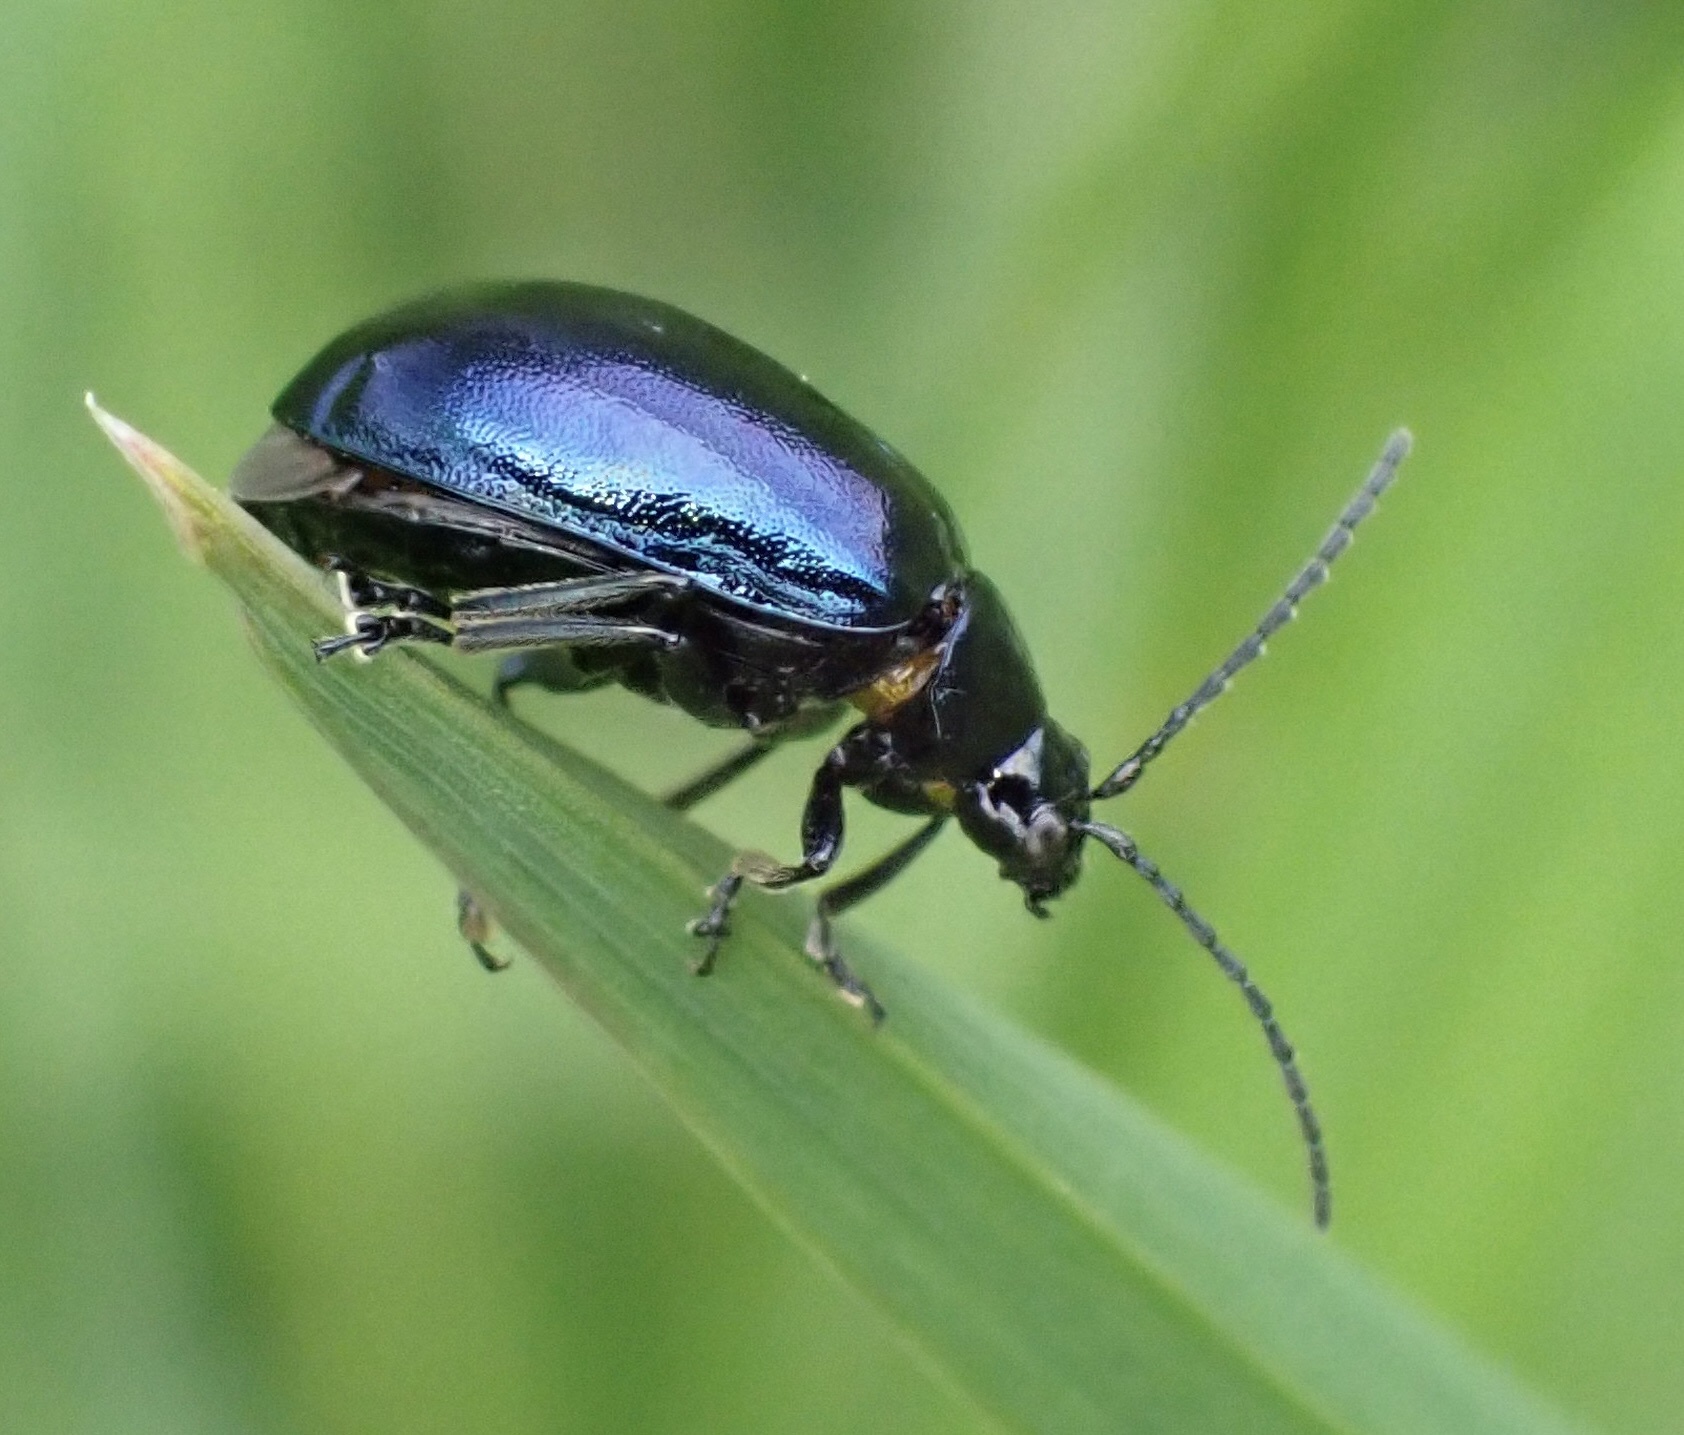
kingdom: Animalia
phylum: Arthropoda
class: Insecta
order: Coleoptera
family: Chrysomelidae
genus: Agelastica
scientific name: Agelastica alni
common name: Alder leaf beetle
